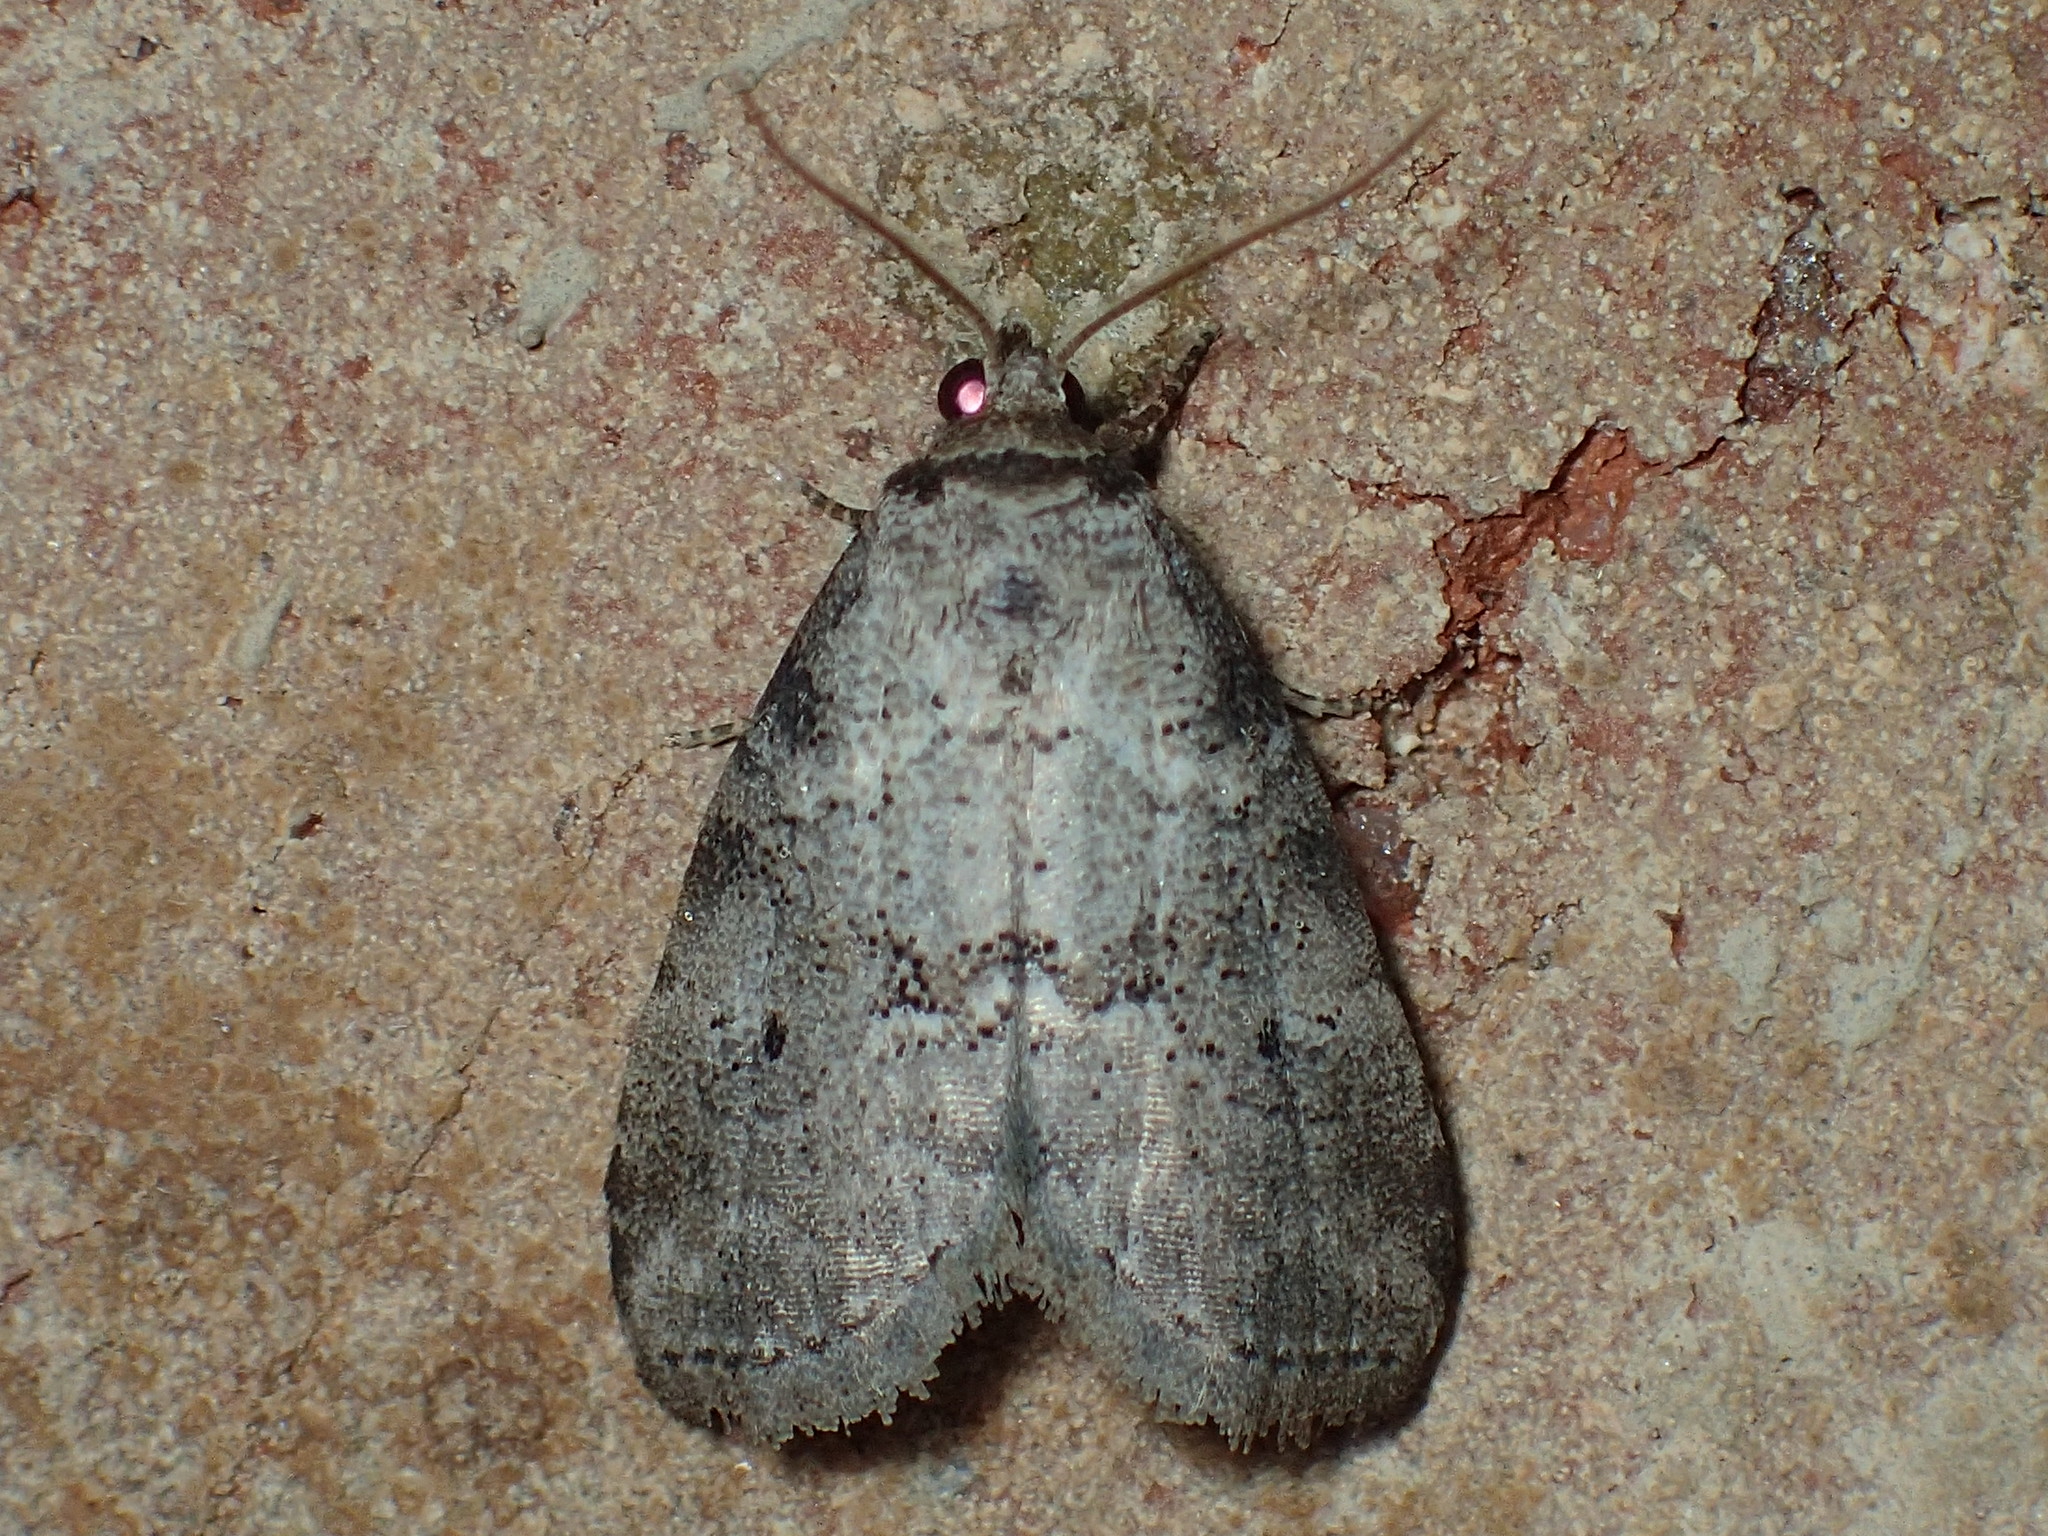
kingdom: Animalia
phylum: Arthropoda
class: Insecta
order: Lepidoptera
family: Erebidae
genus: Hyperstrotia
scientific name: Hyperstrotia pervertens
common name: Dotted graylet
